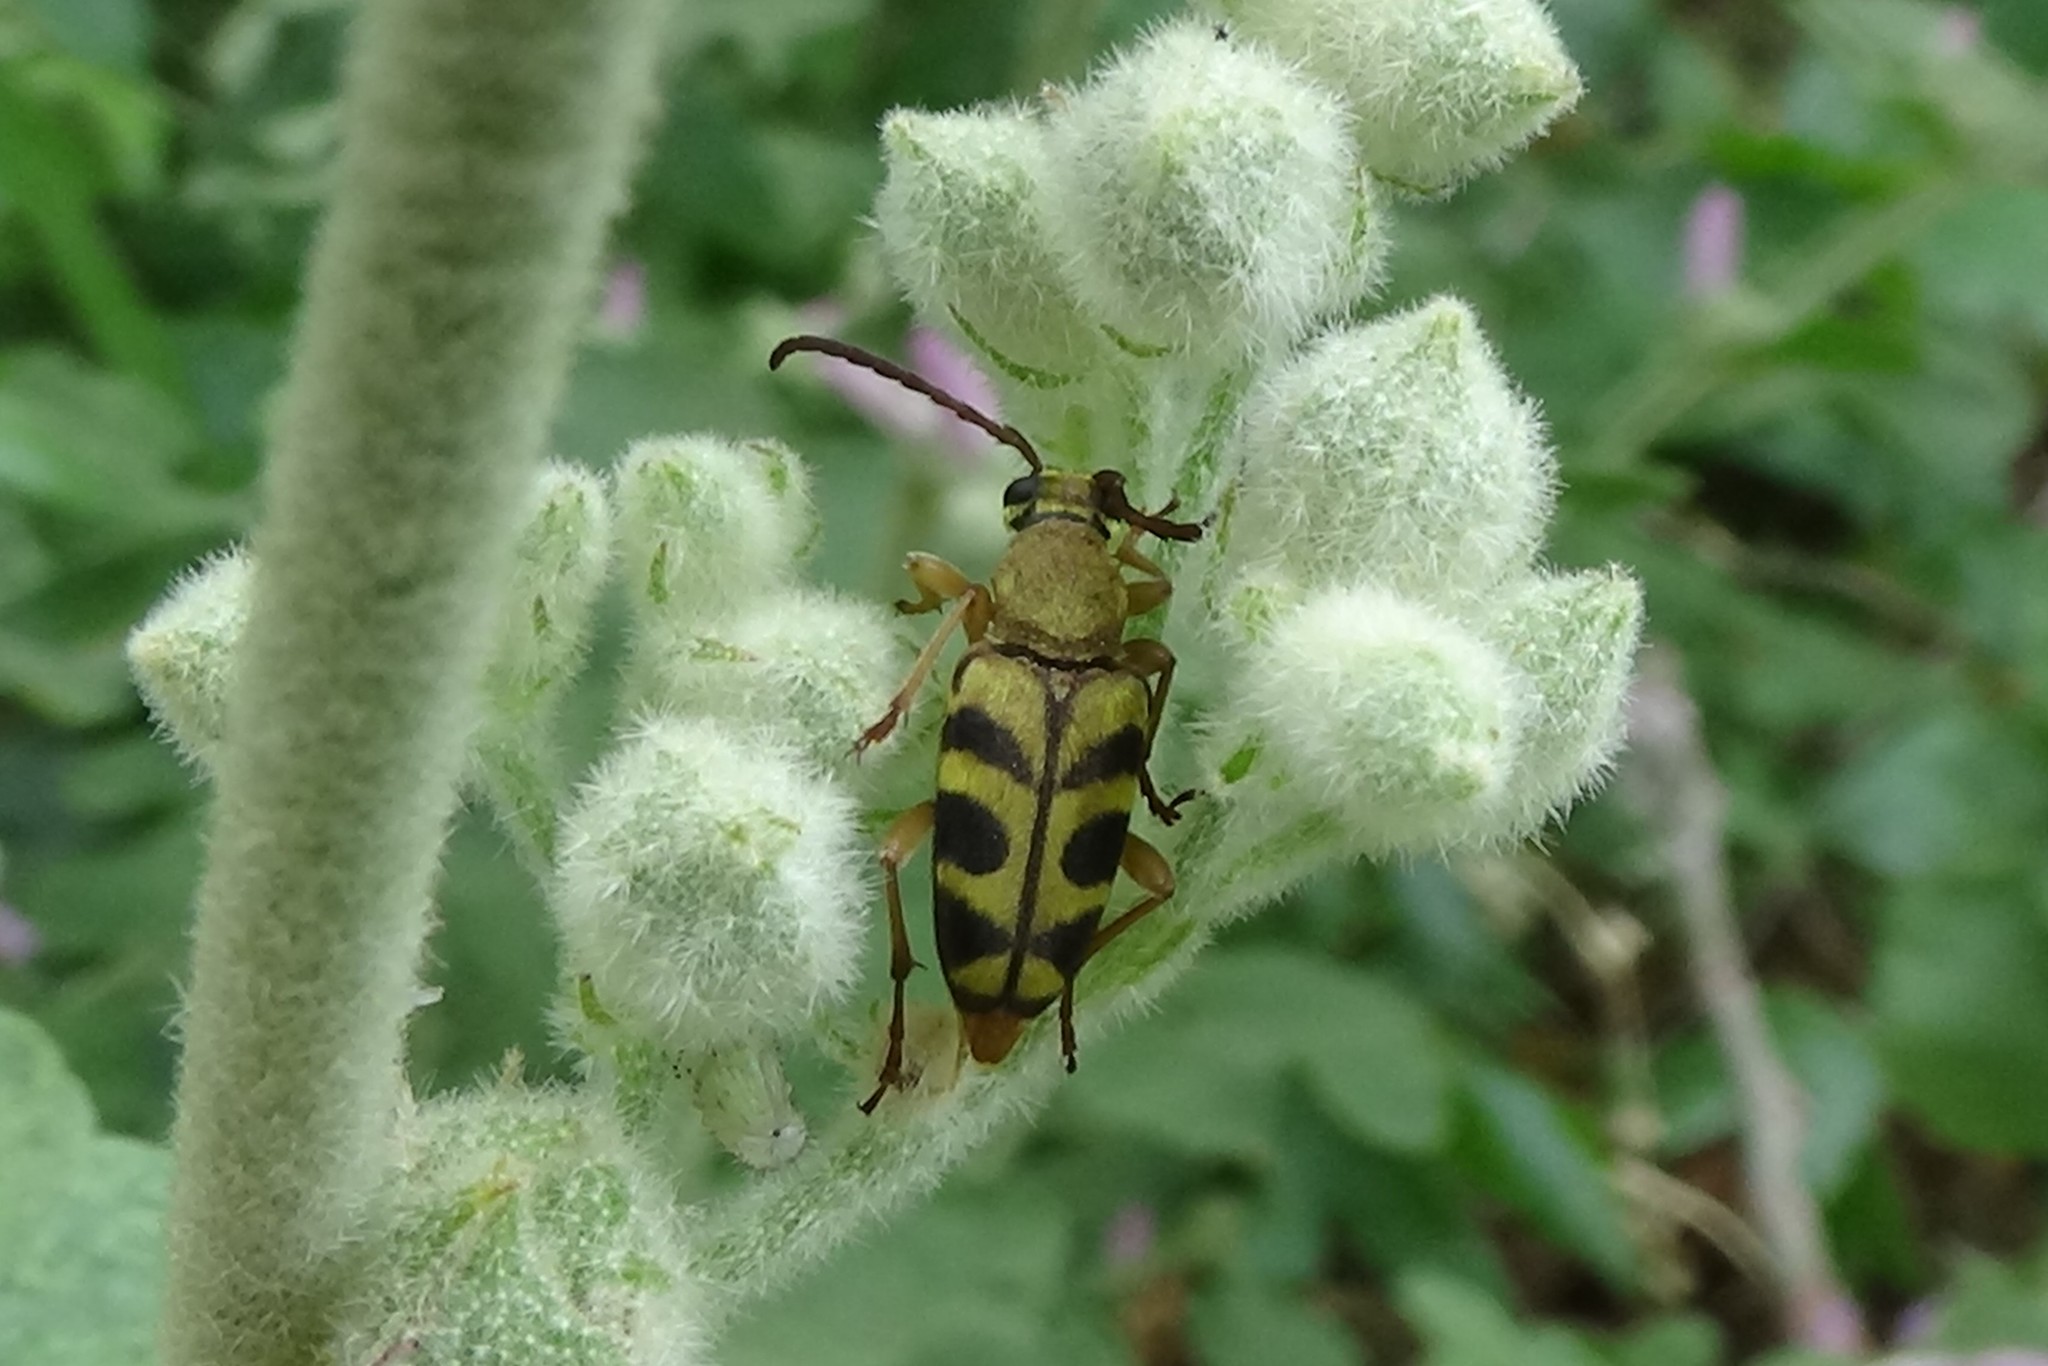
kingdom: Animalia
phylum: Arthropoda
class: Insecta
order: Coleoptera
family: Cerambycidae
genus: Strophiona
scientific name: Strophiona tigrina
